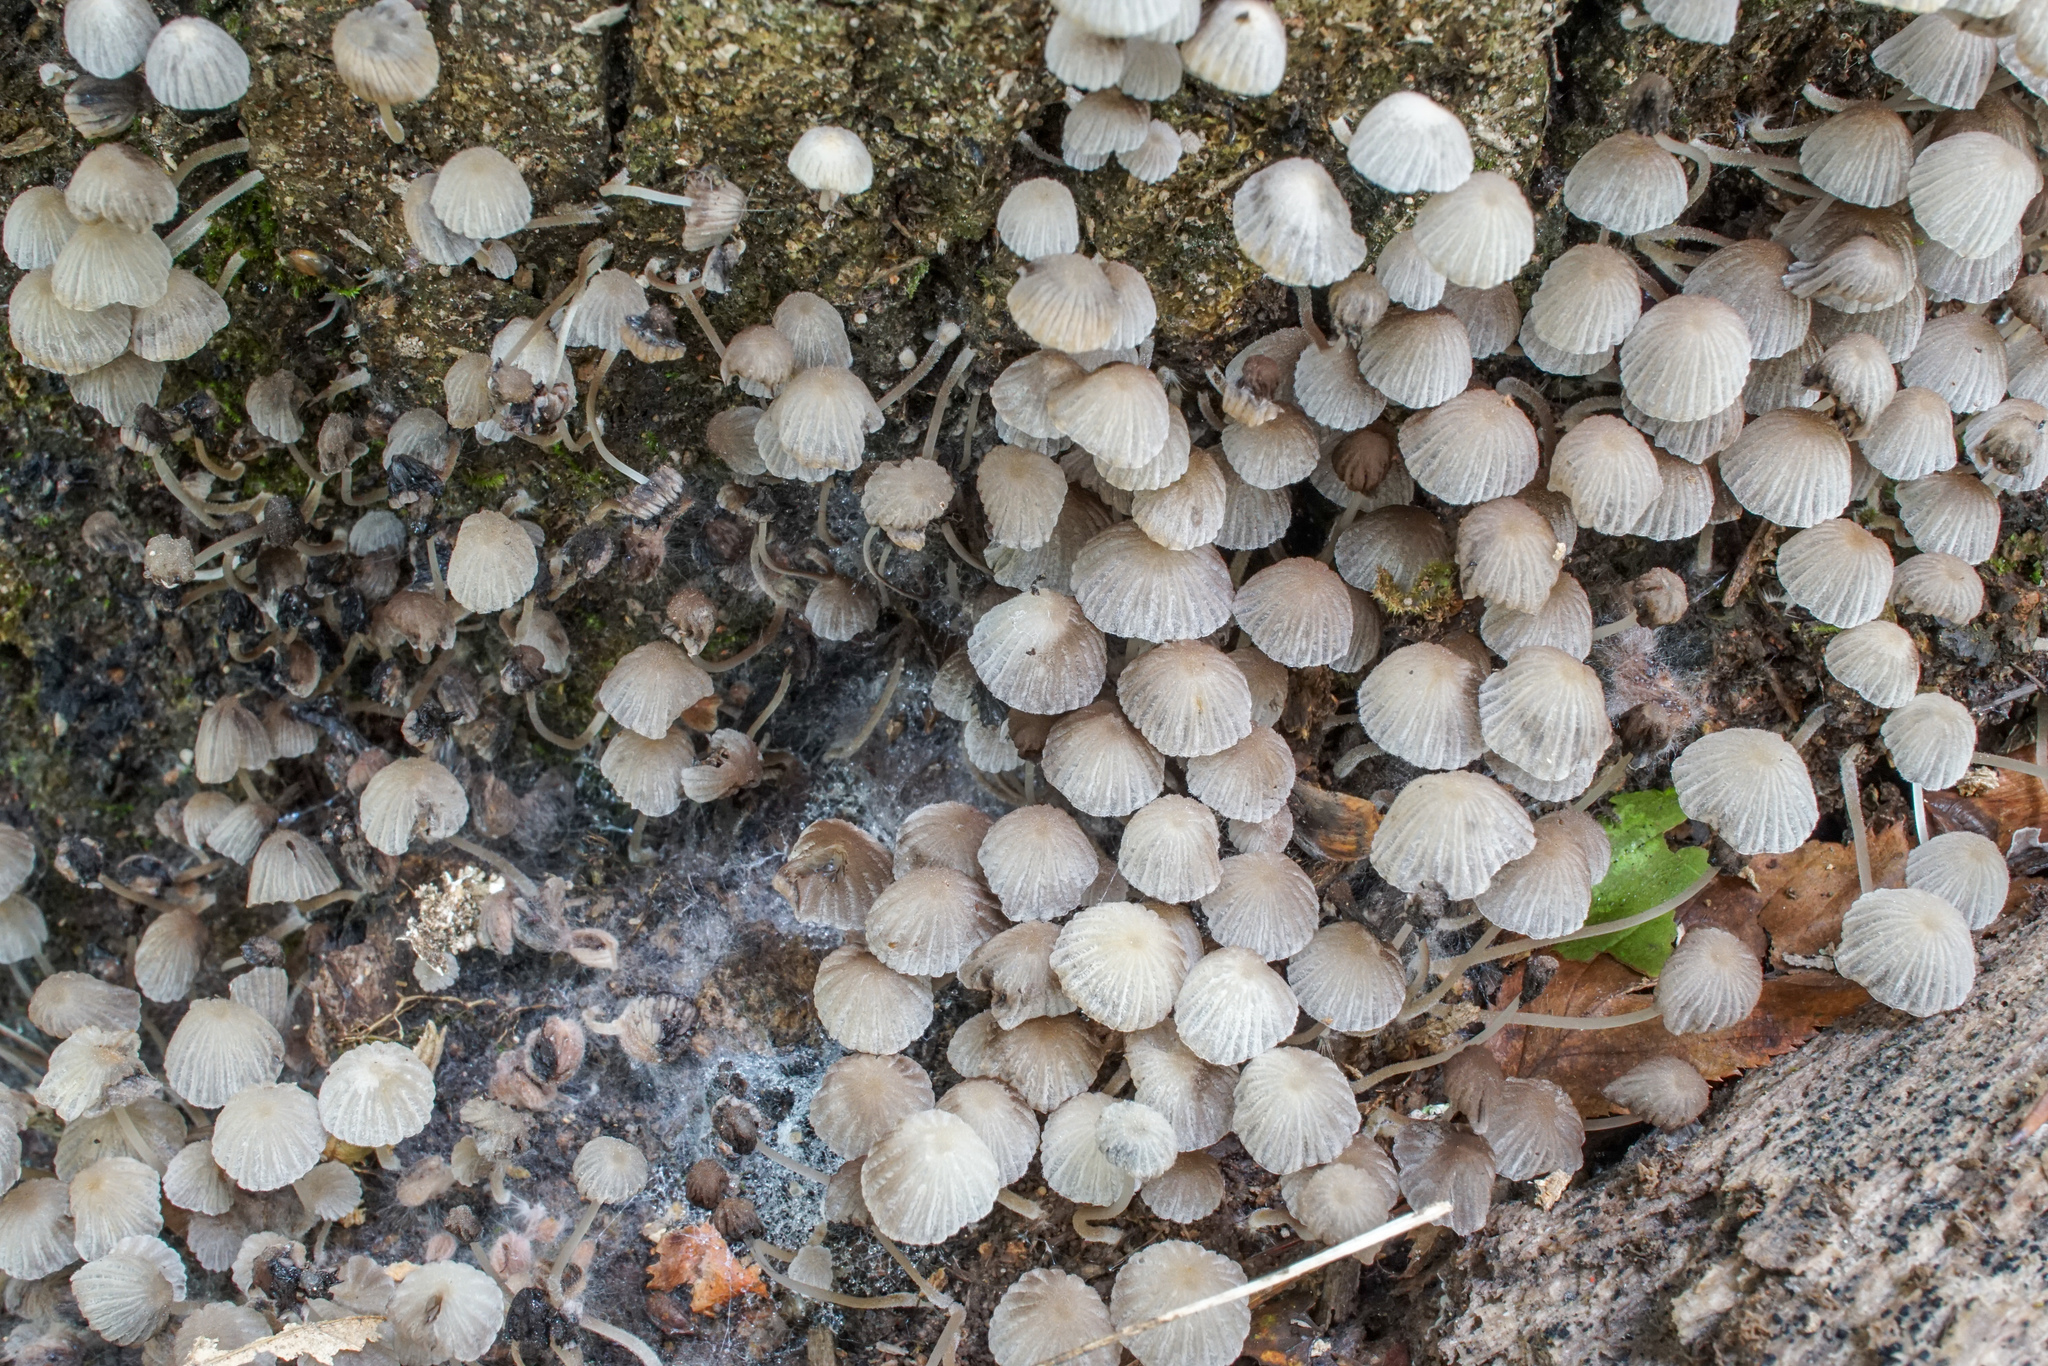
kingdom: Fungi
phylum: Basidiomycota
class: Agaricomycetes
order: Agaricales
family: Psathyrellaceae
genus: Coprinellus
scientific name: Coprinellus disseminatus
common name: Fairies' bonnets
